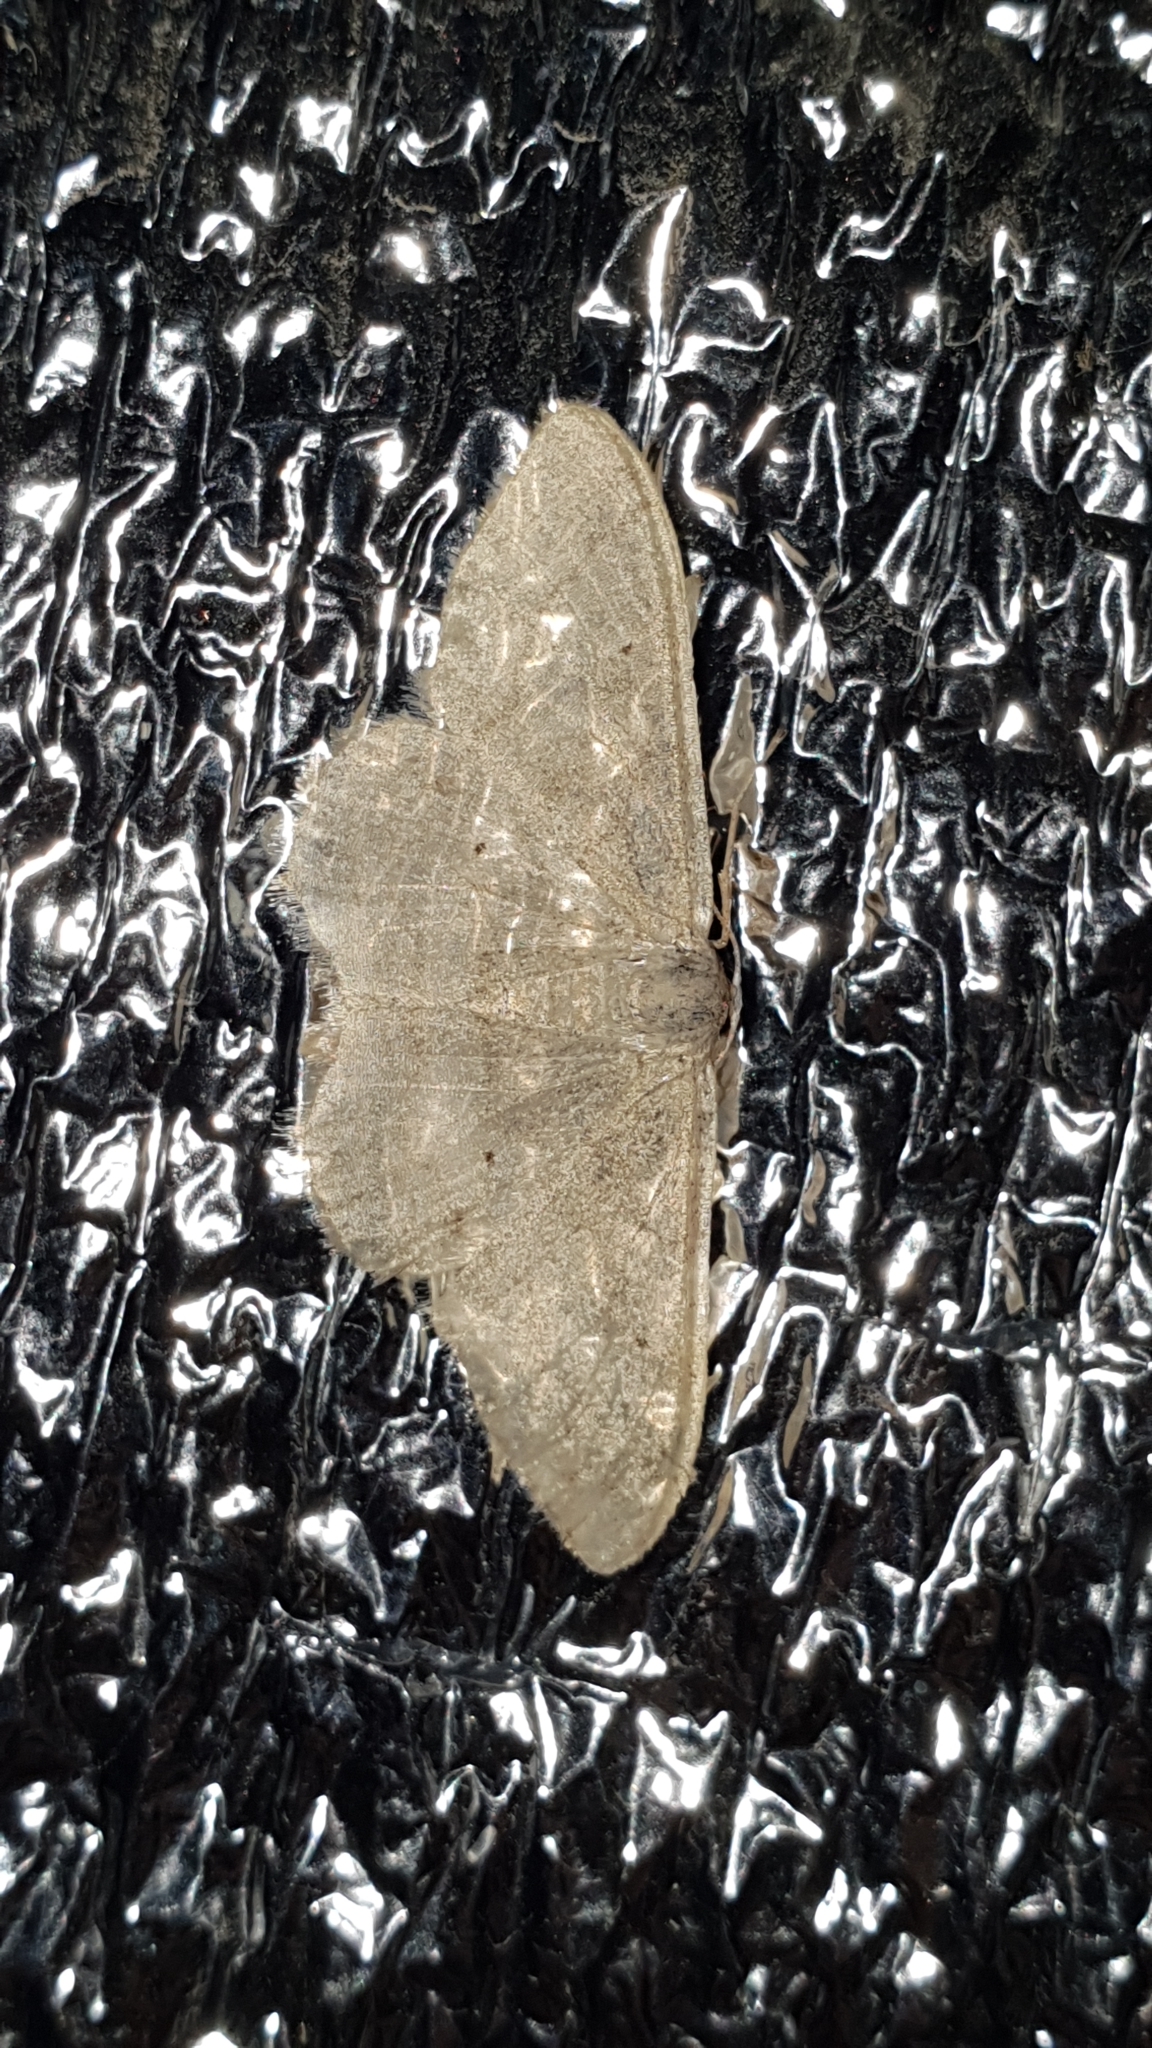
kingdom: Animalia
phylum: Arthropoda
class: Insecta
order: Lepidoptera
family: Geometridae
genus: Idaea
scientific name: Idaea straminata
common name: Plain wave
